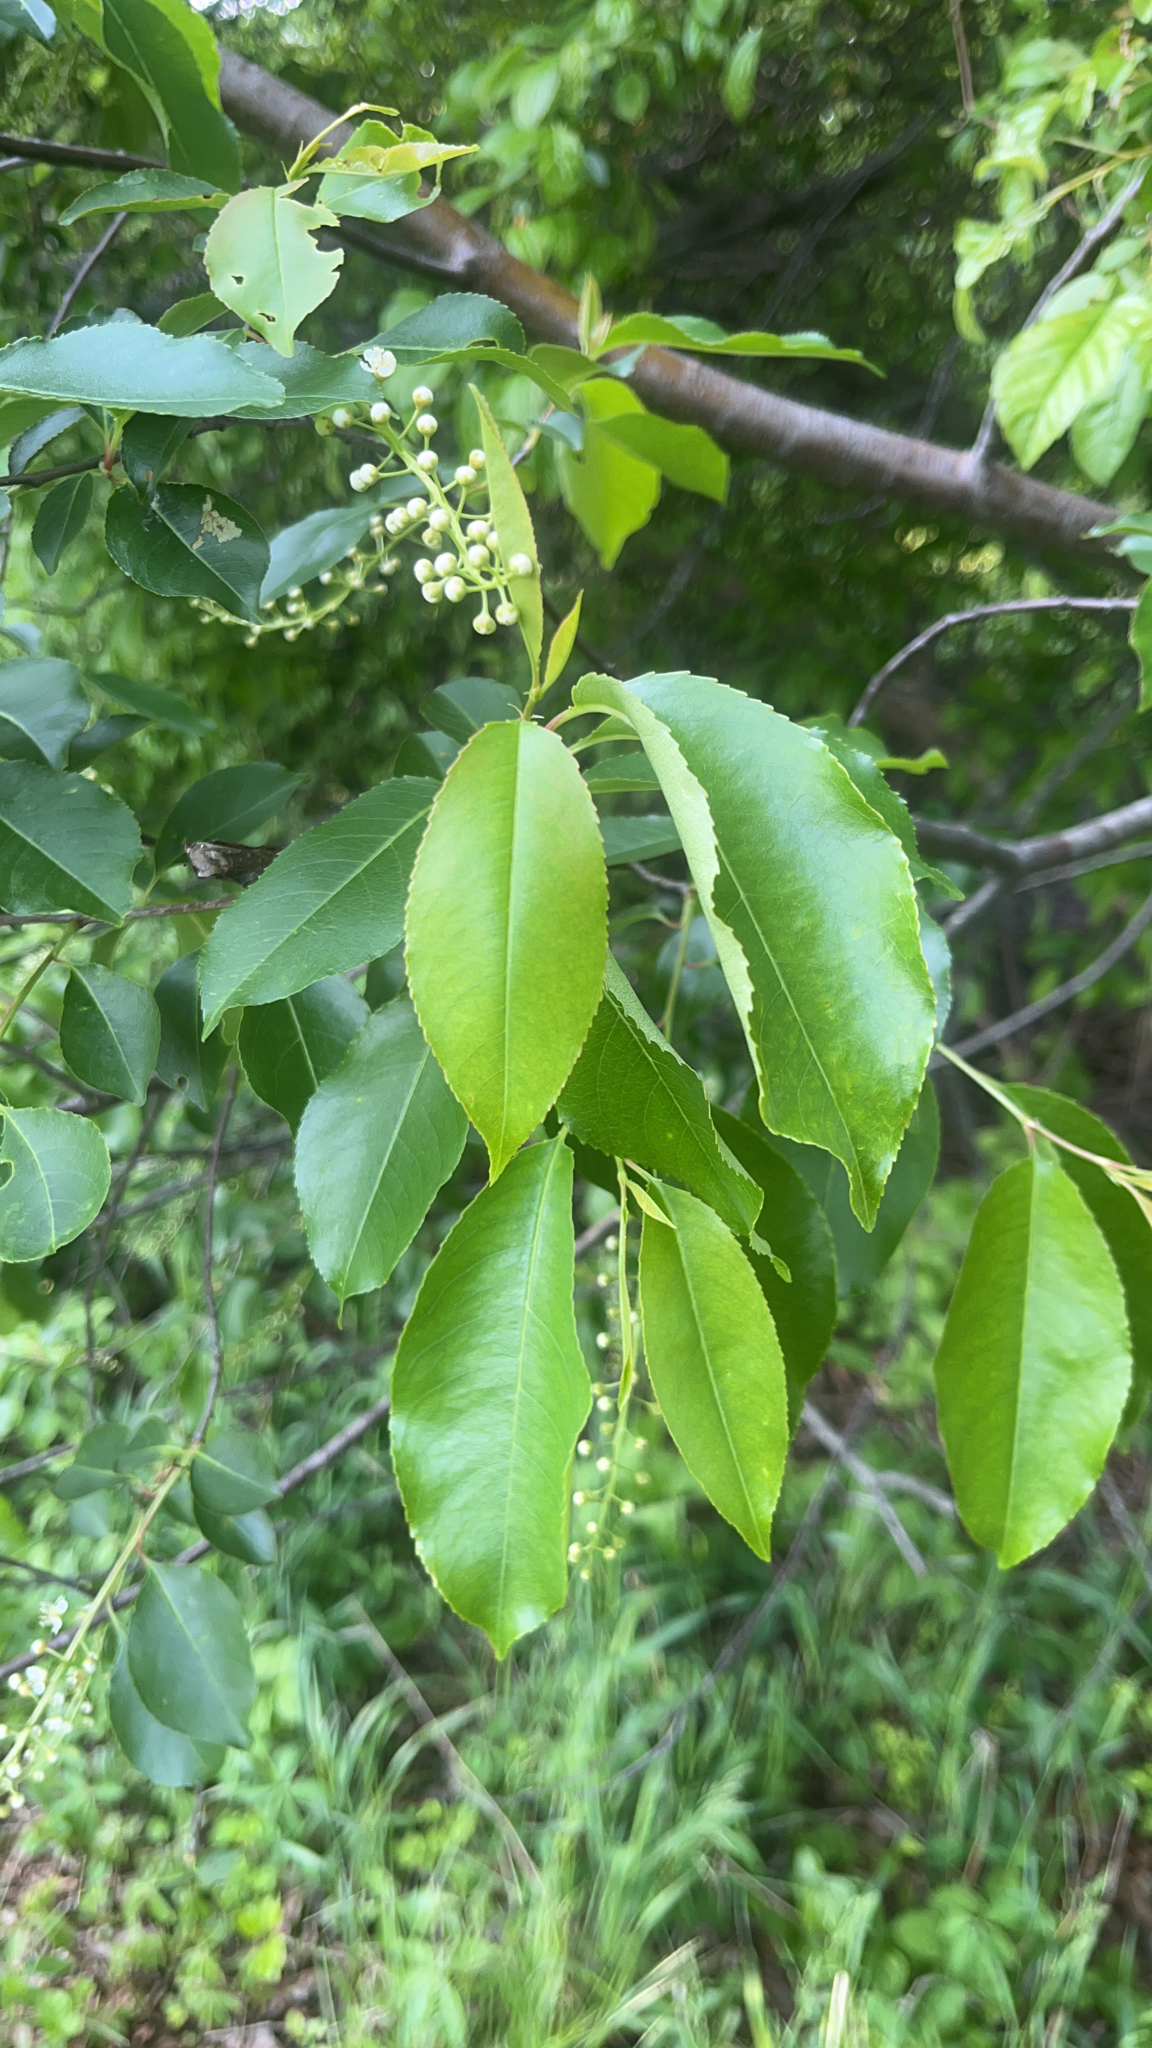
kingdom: Plantae
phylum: Tracheophyta
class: Magnoliopsida
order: Rosales
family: Rosaceae
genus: Prunus
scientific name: Prunus serotina
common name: Black cherry
